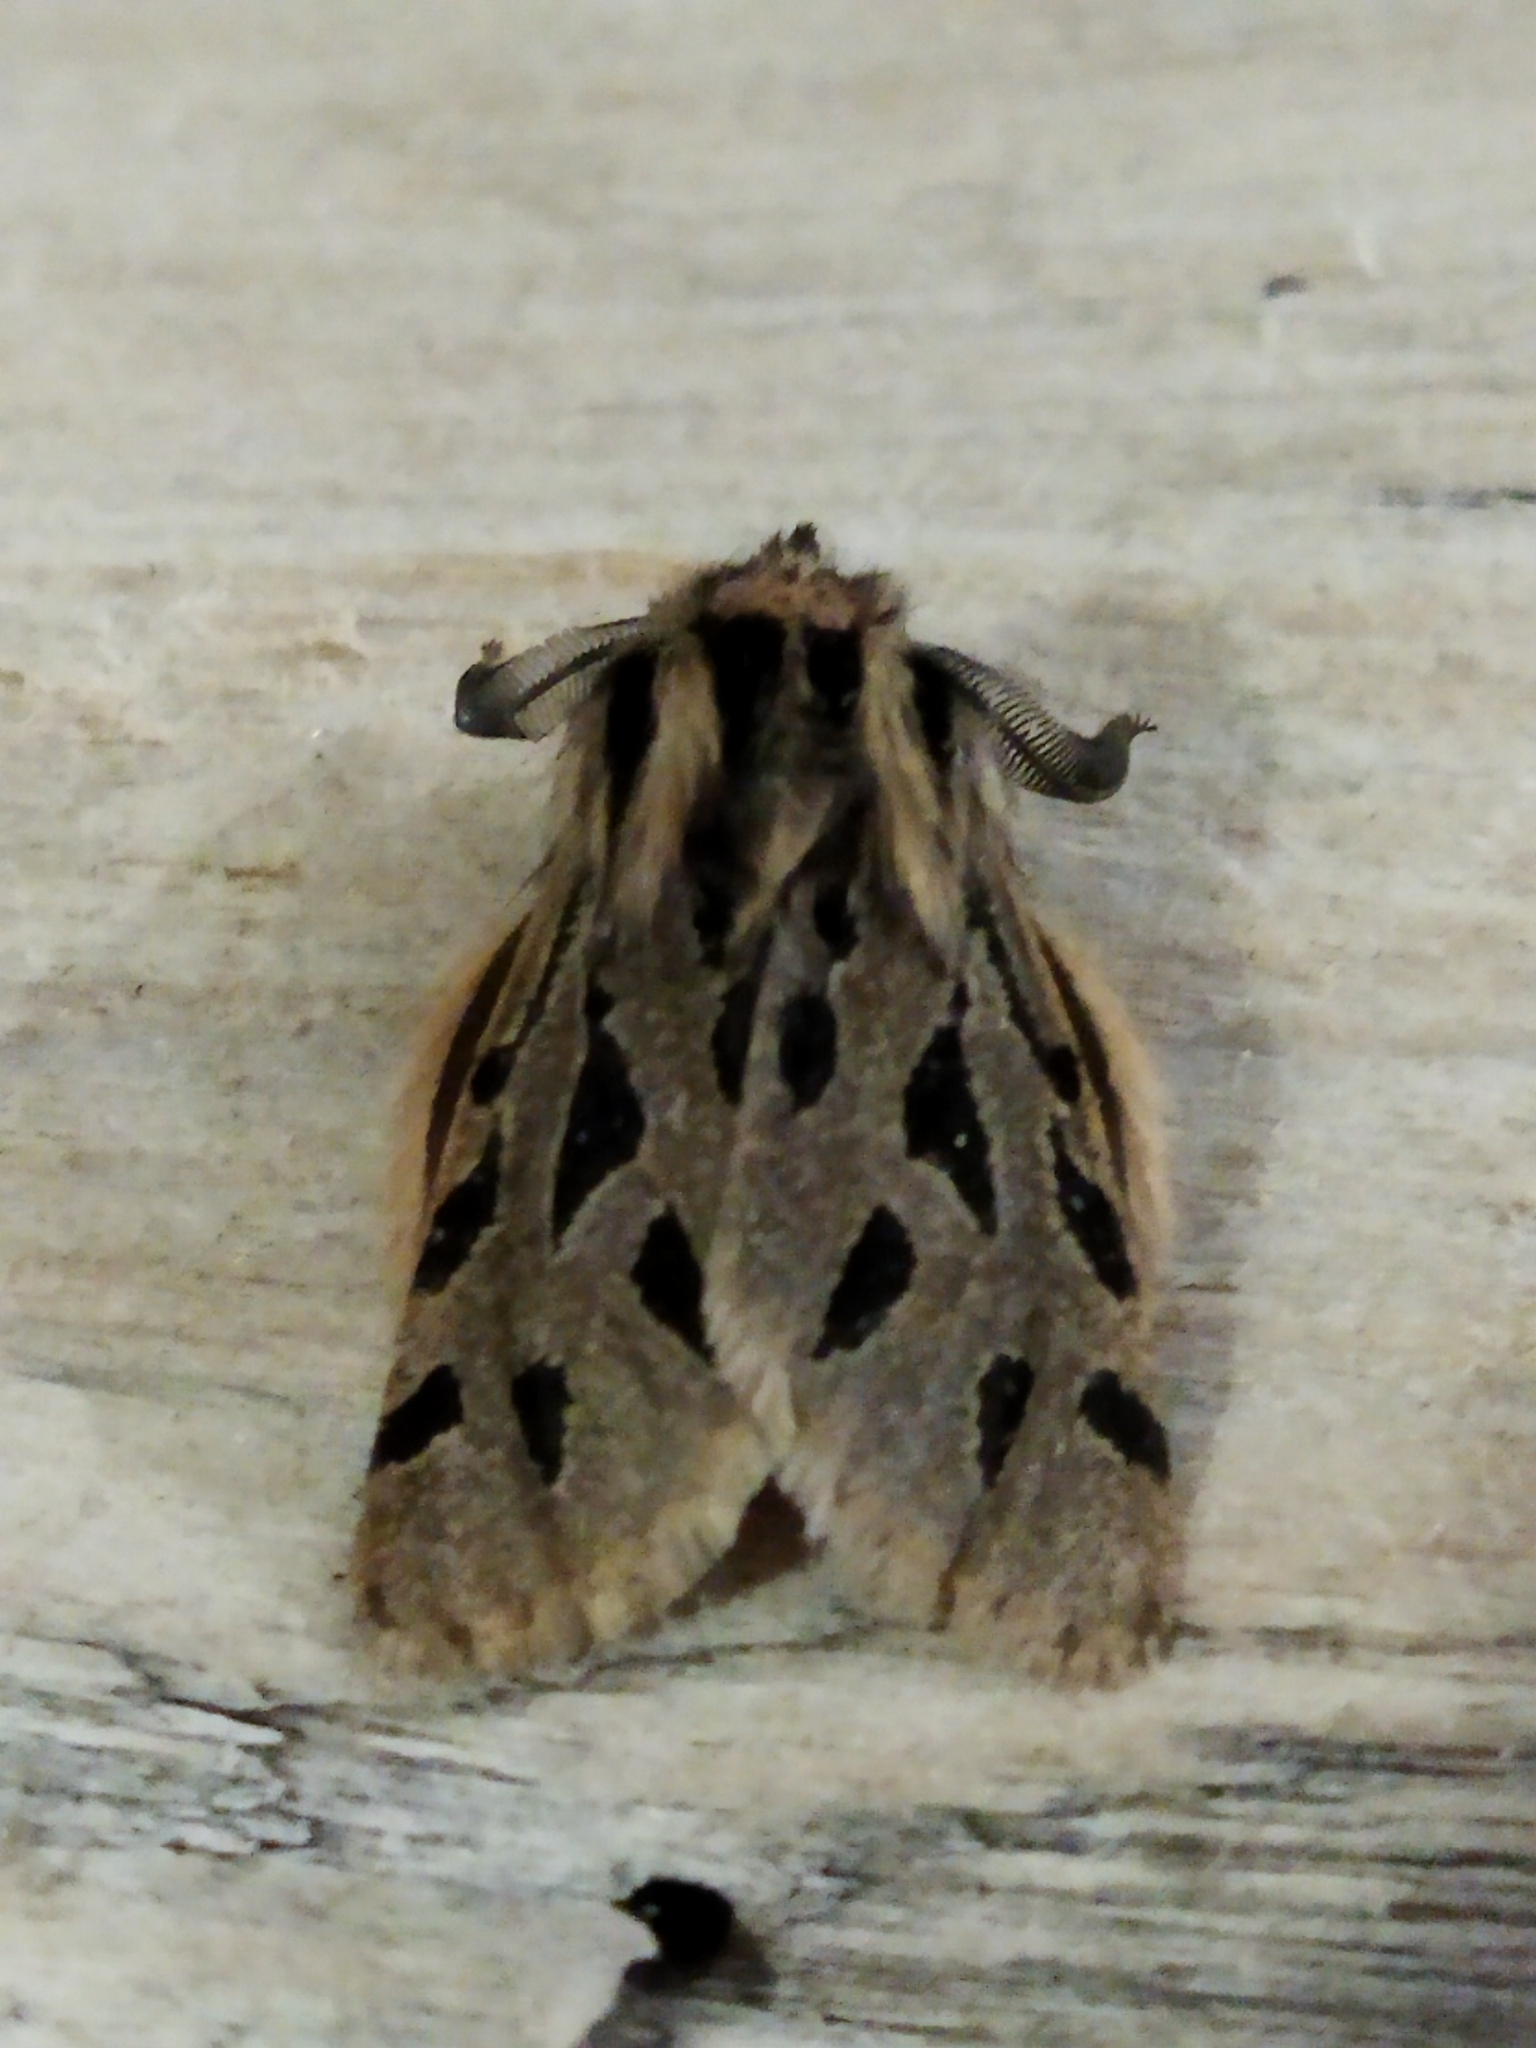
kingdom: Animalia
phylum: Arthropoda
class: Insecta
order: Lepidoptera
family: Erebidae
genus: Ocnogyna
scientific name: Ocnogyna parasita
